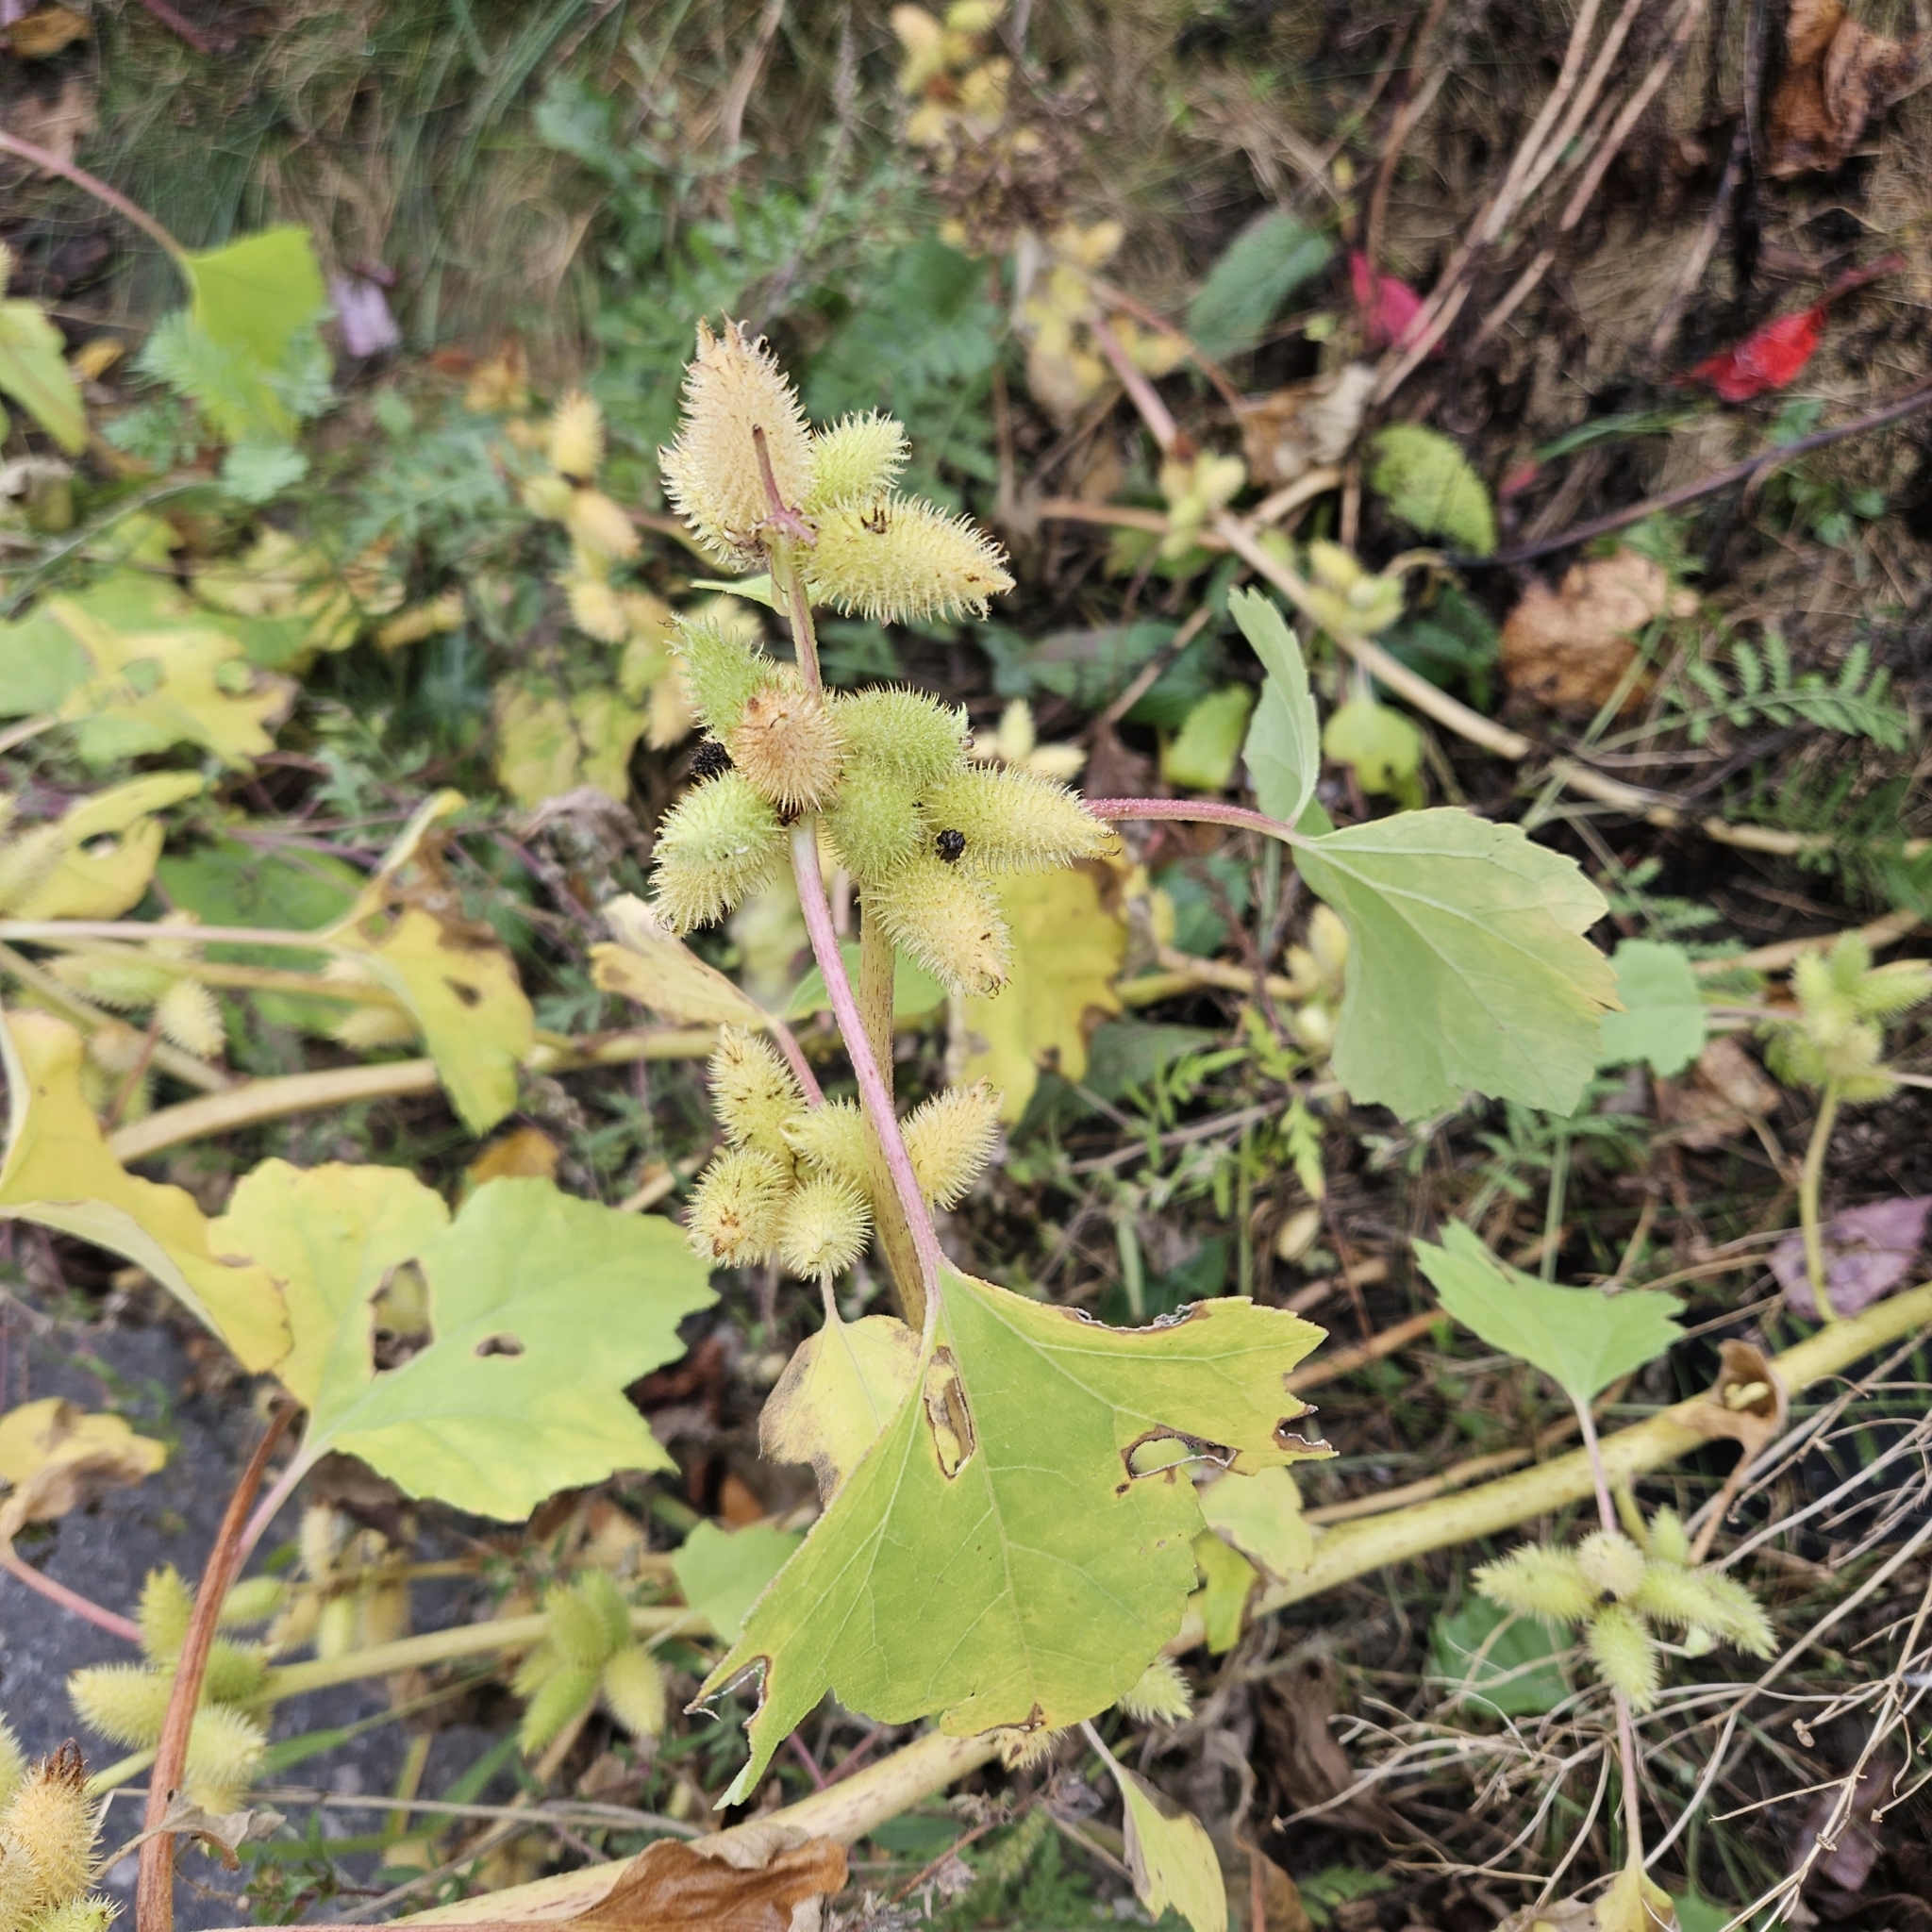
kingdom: Plantae
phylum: Tracheophyta
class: Magnoliopsida
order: Asterales
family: Asteraceae
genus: Xanthium
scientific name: Xanthium strumarium
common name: Rough cocklebur
